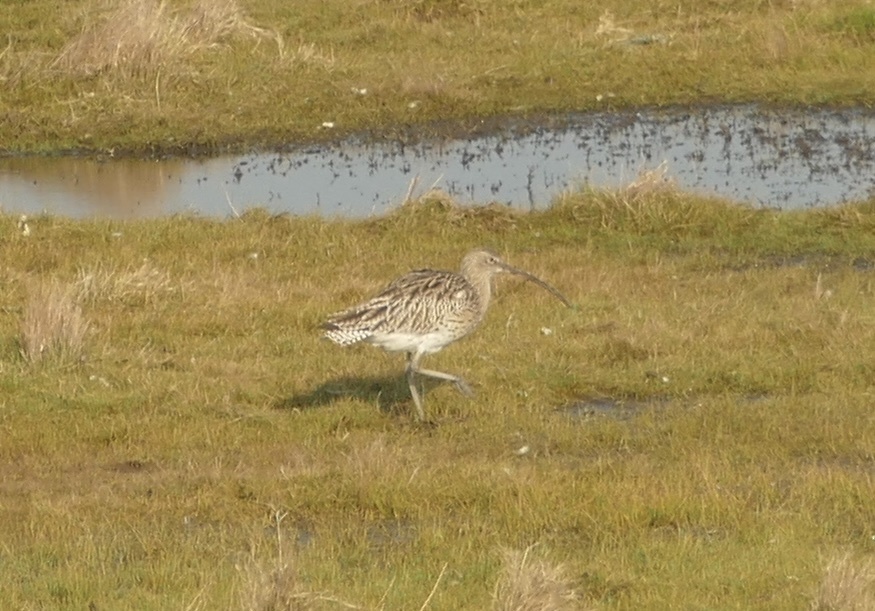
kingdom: Animalia
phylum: Chordata
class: Aves
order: Charadriiformes
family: Scolopacidae
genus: Numenius
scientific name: Numenius arquata
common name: Eurasian curlew
